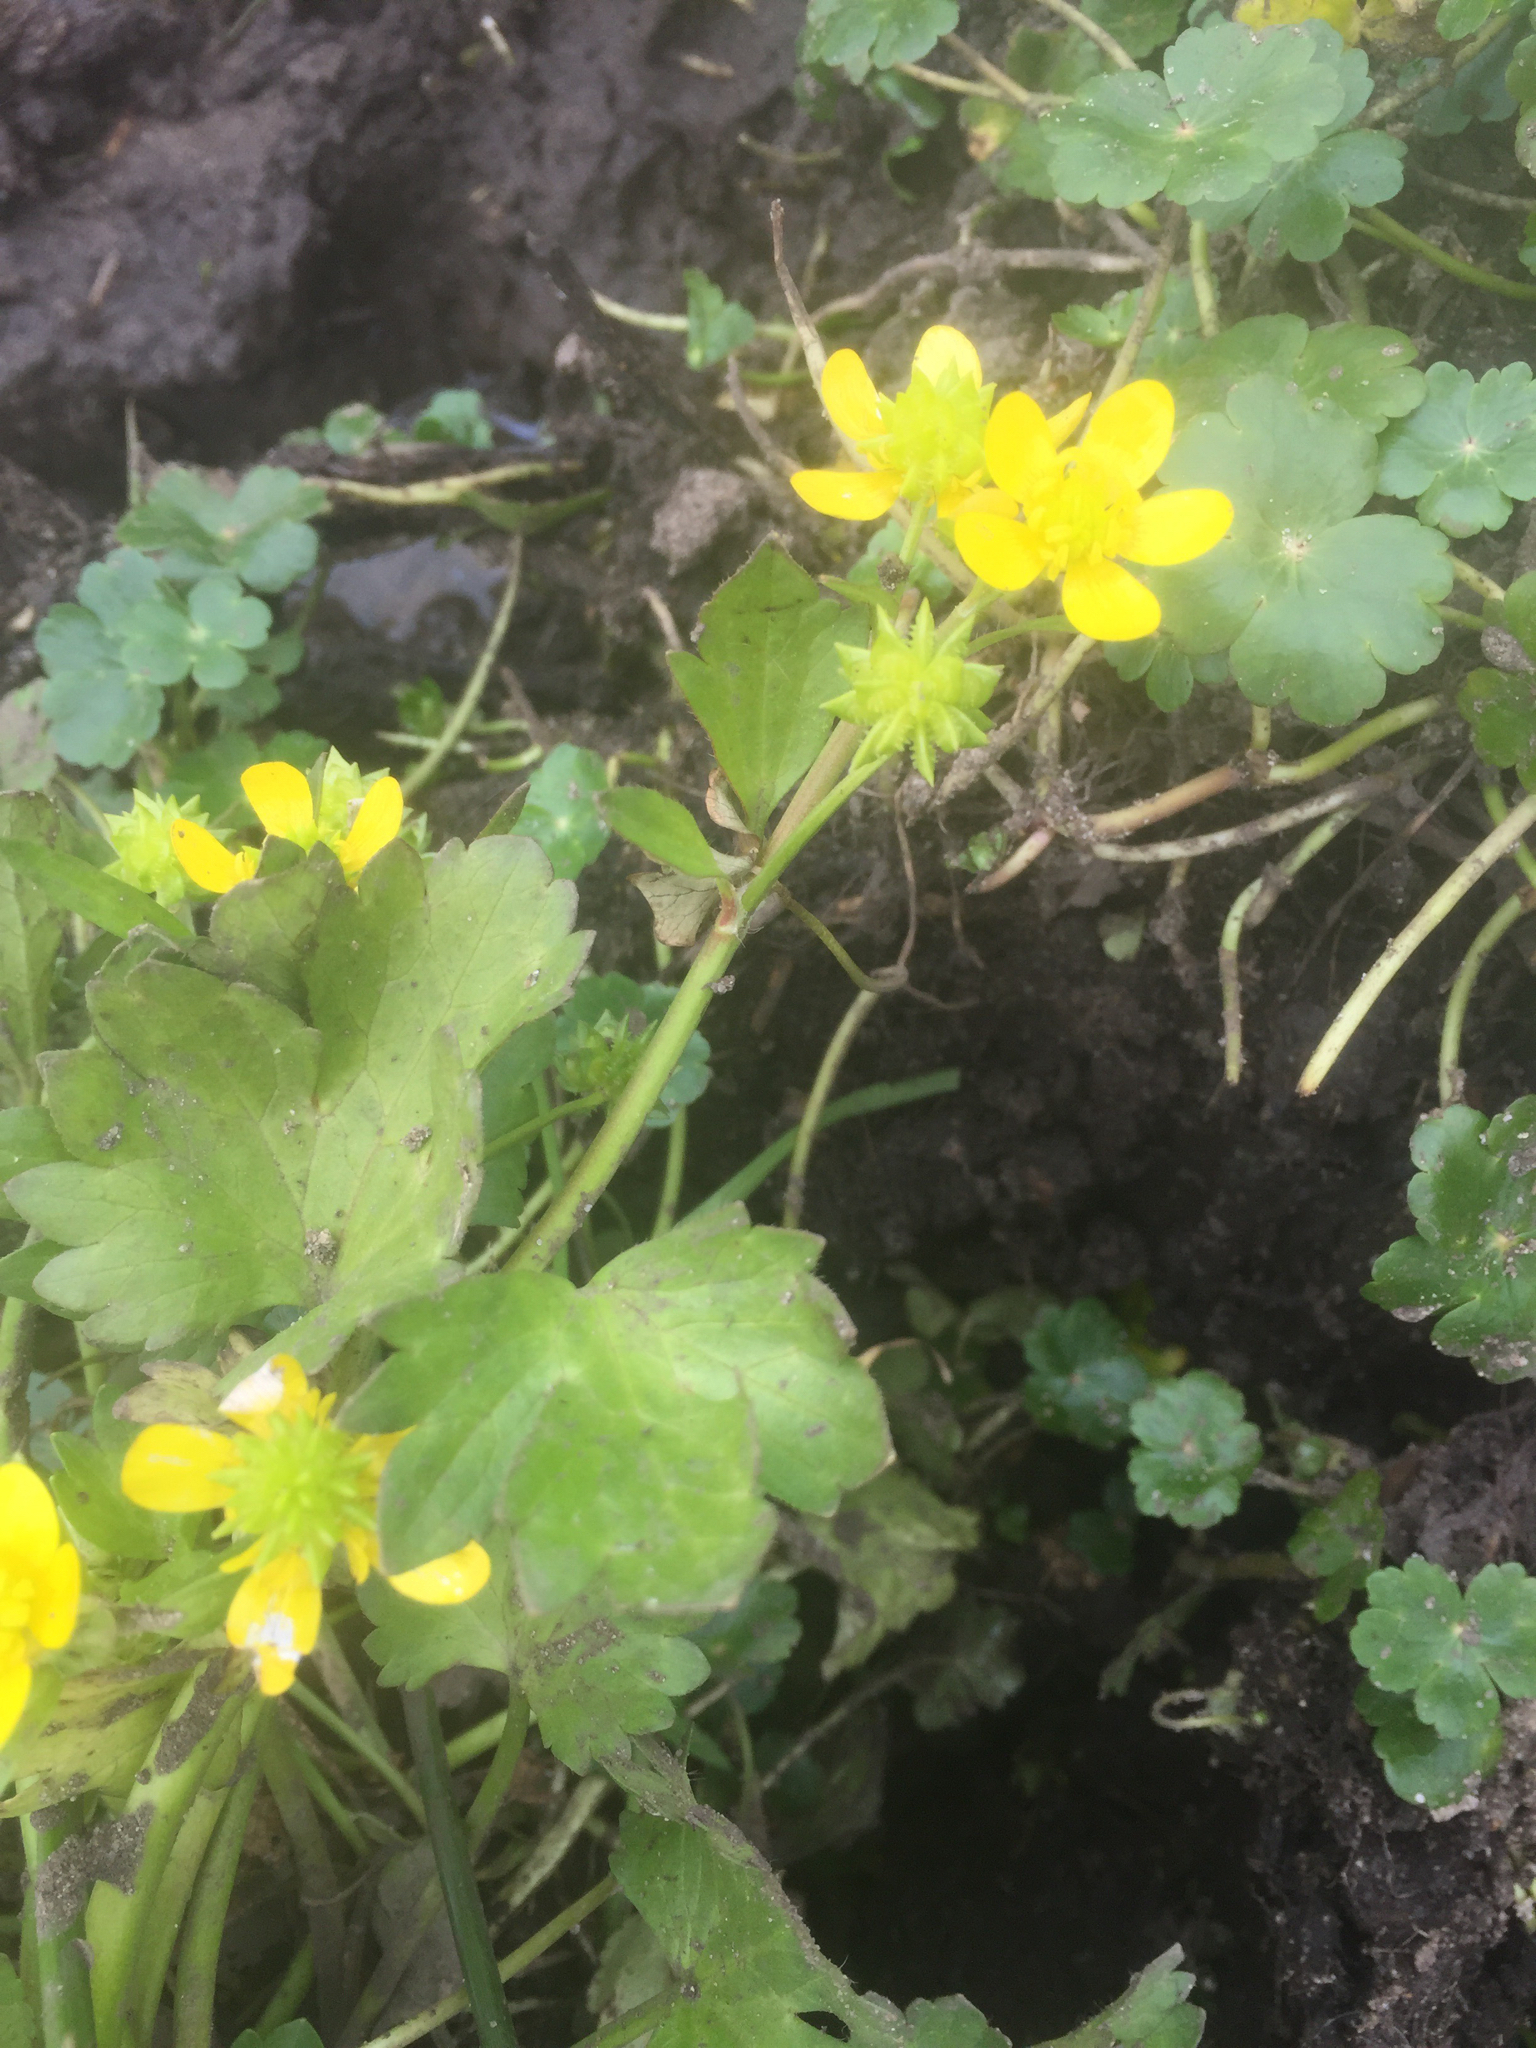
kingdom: Plantae
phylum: Tracheophyta
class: Magnoliopsida
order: Ranunculales
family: Ranunculaceae
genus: Ranunculus
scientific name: Ranunculus muricatus
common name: Rough-fruited buttercup
